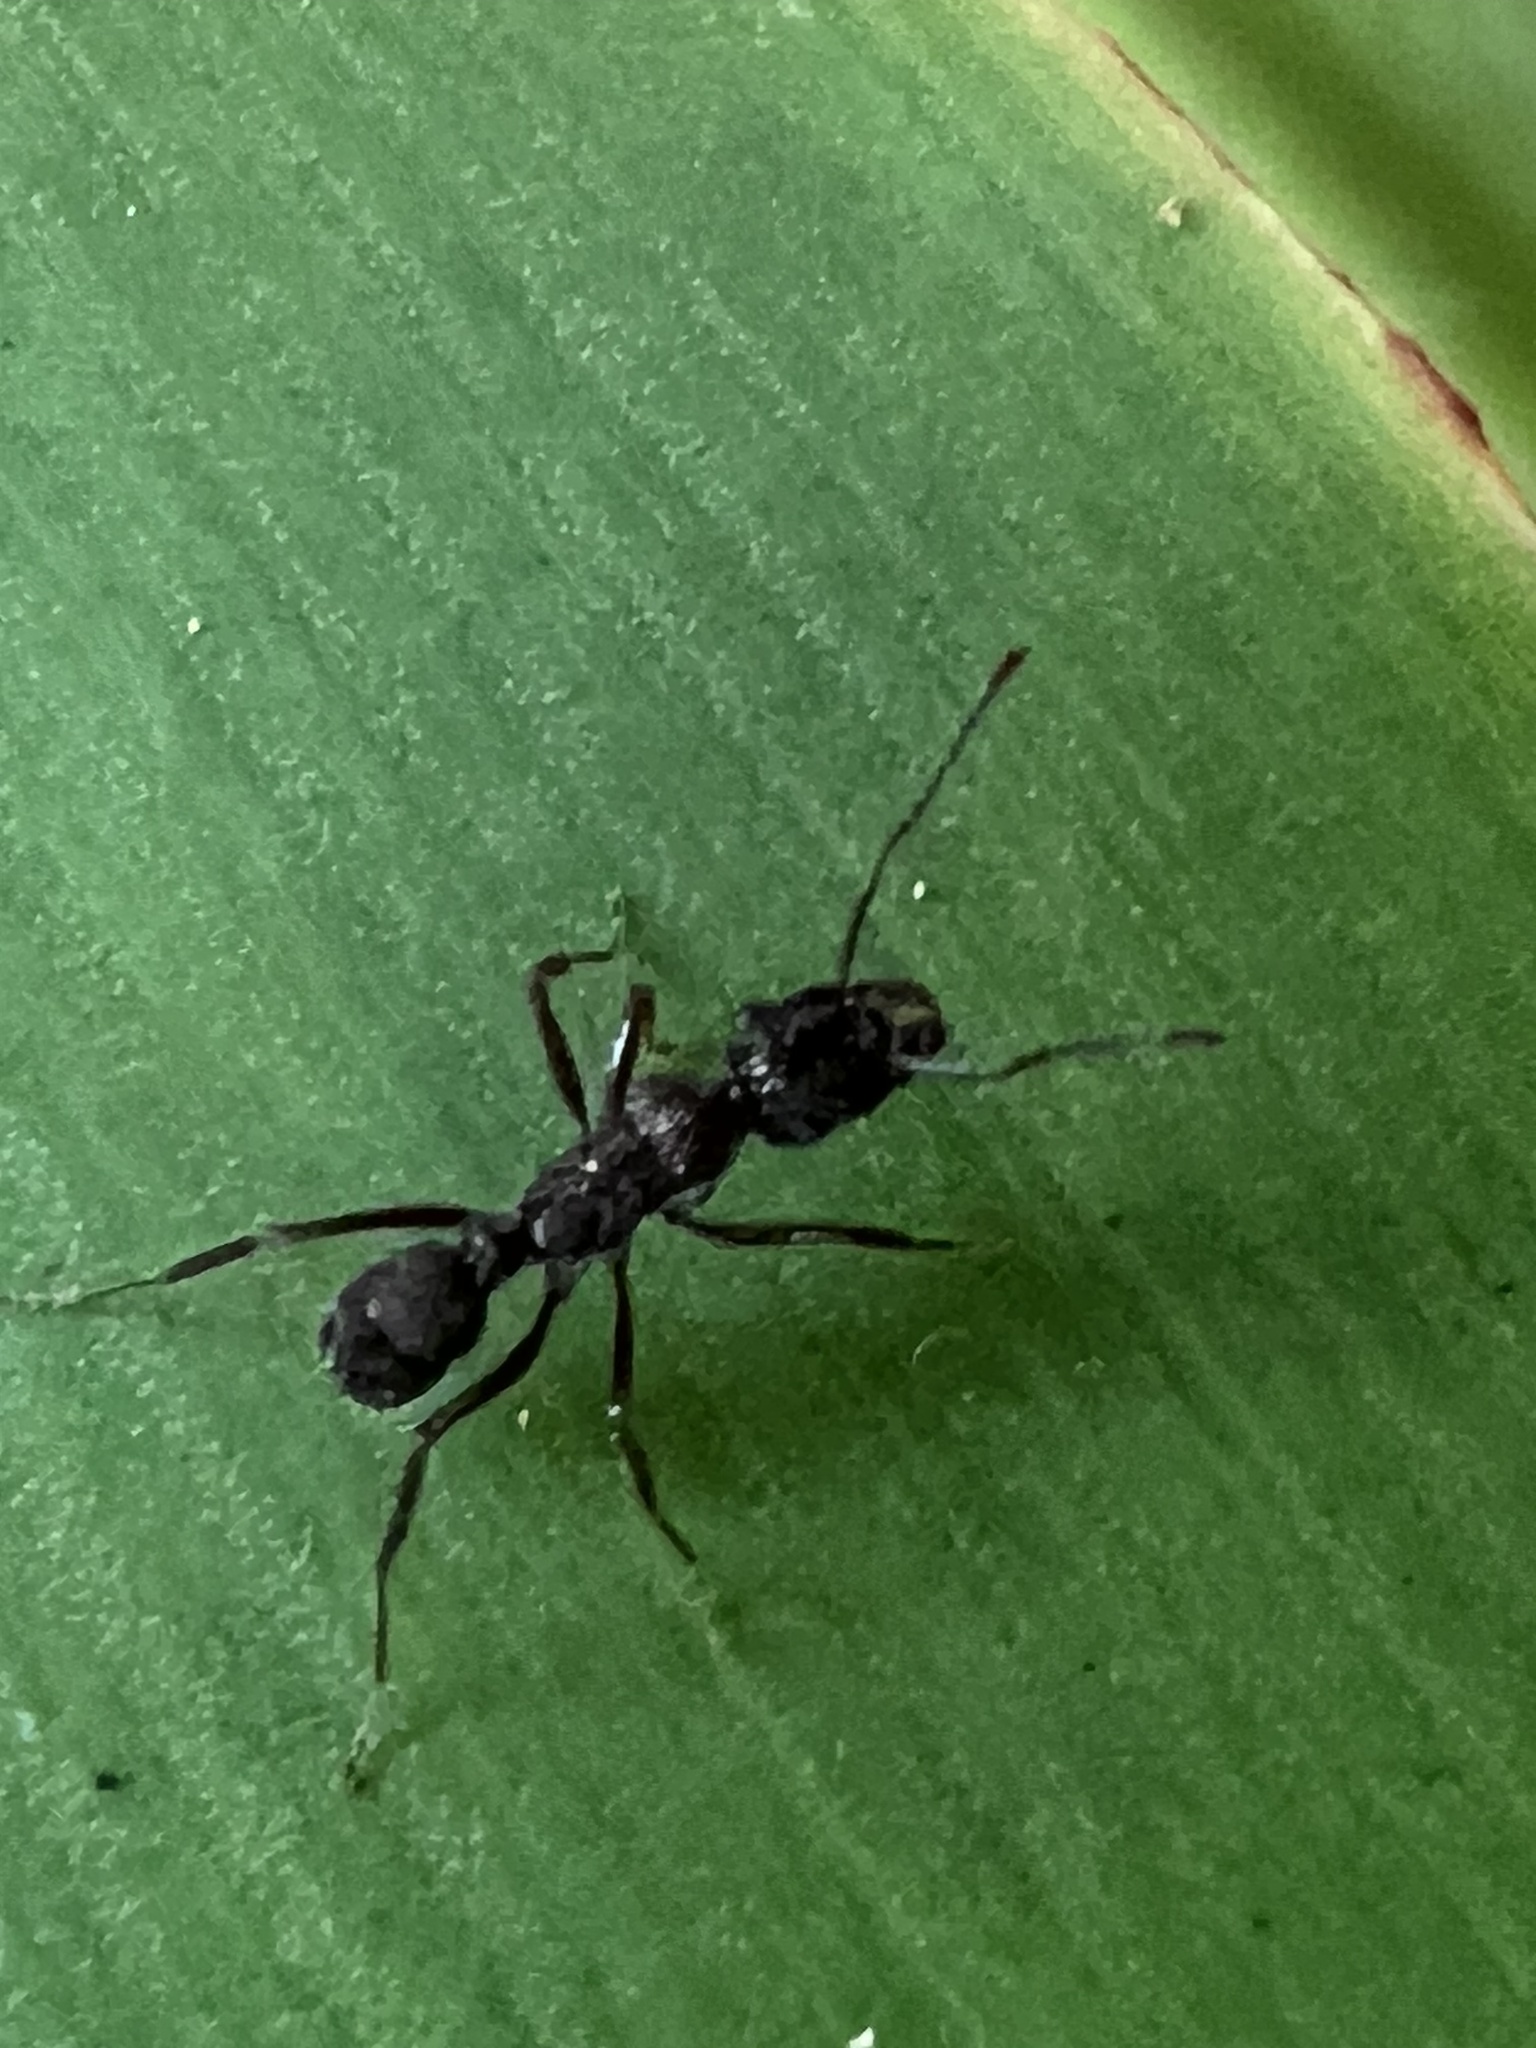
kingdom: Animalia
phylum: Arthropoda
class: Insecta
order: Hymenoptera
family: Formicidae
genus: Ectatomma
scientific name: Ectatomma ruidum
